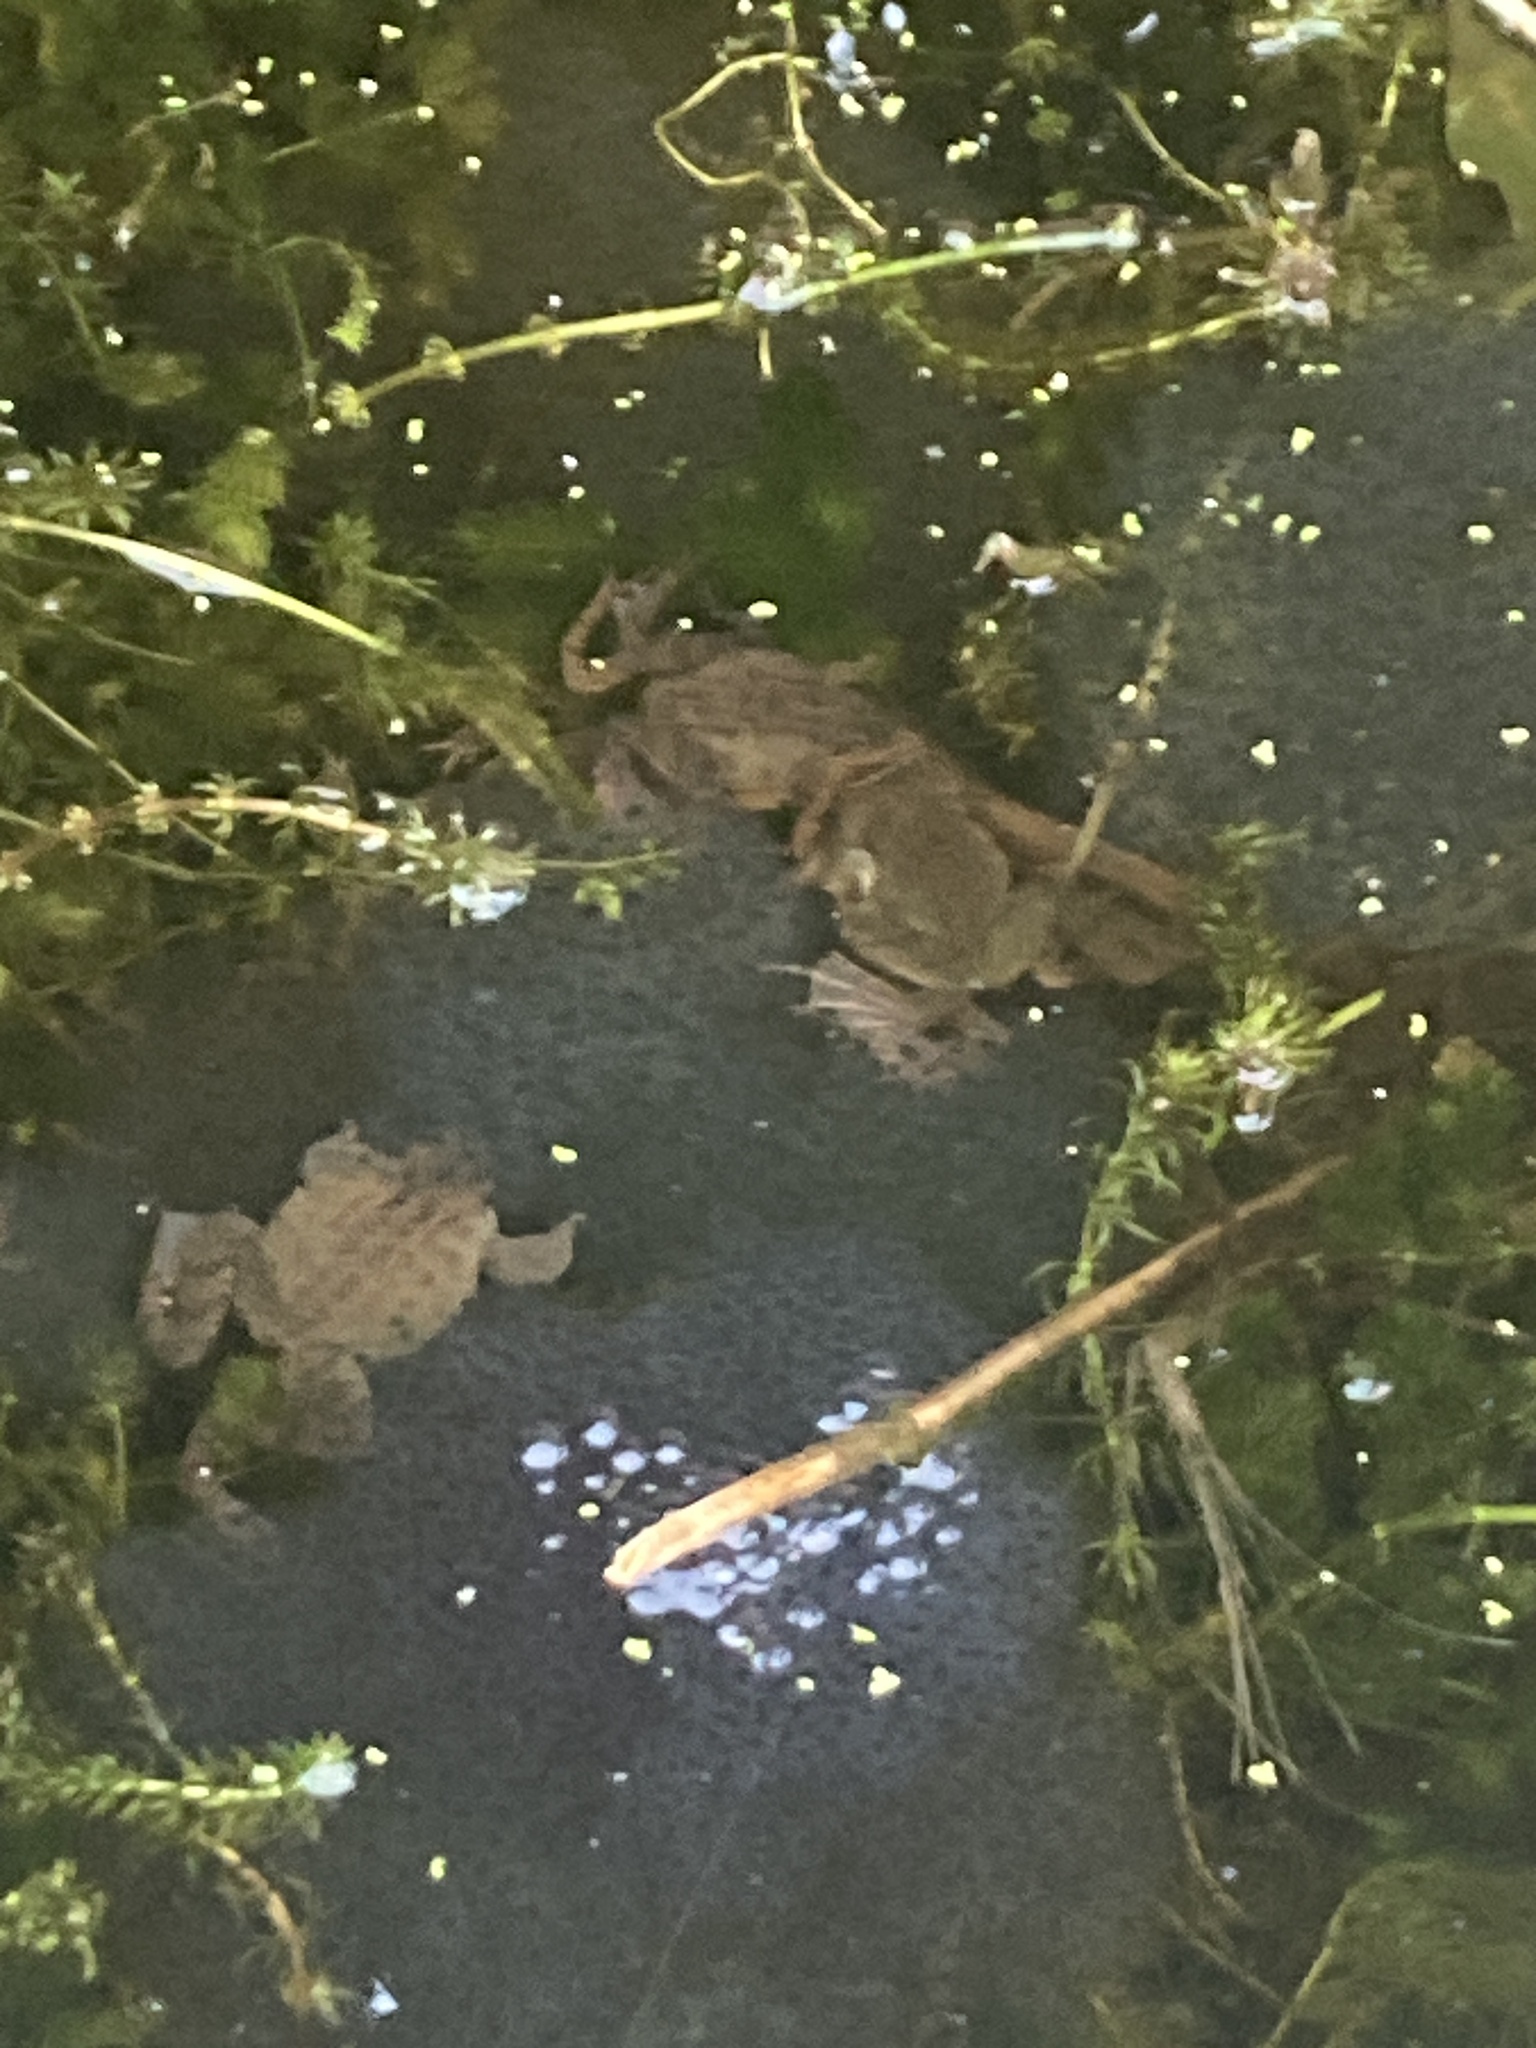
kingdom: Animalia
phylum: Chordata
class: Amphibia
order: Anura
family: Ranidae
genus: Rana
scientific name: Rana temporaria
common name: Common frog
